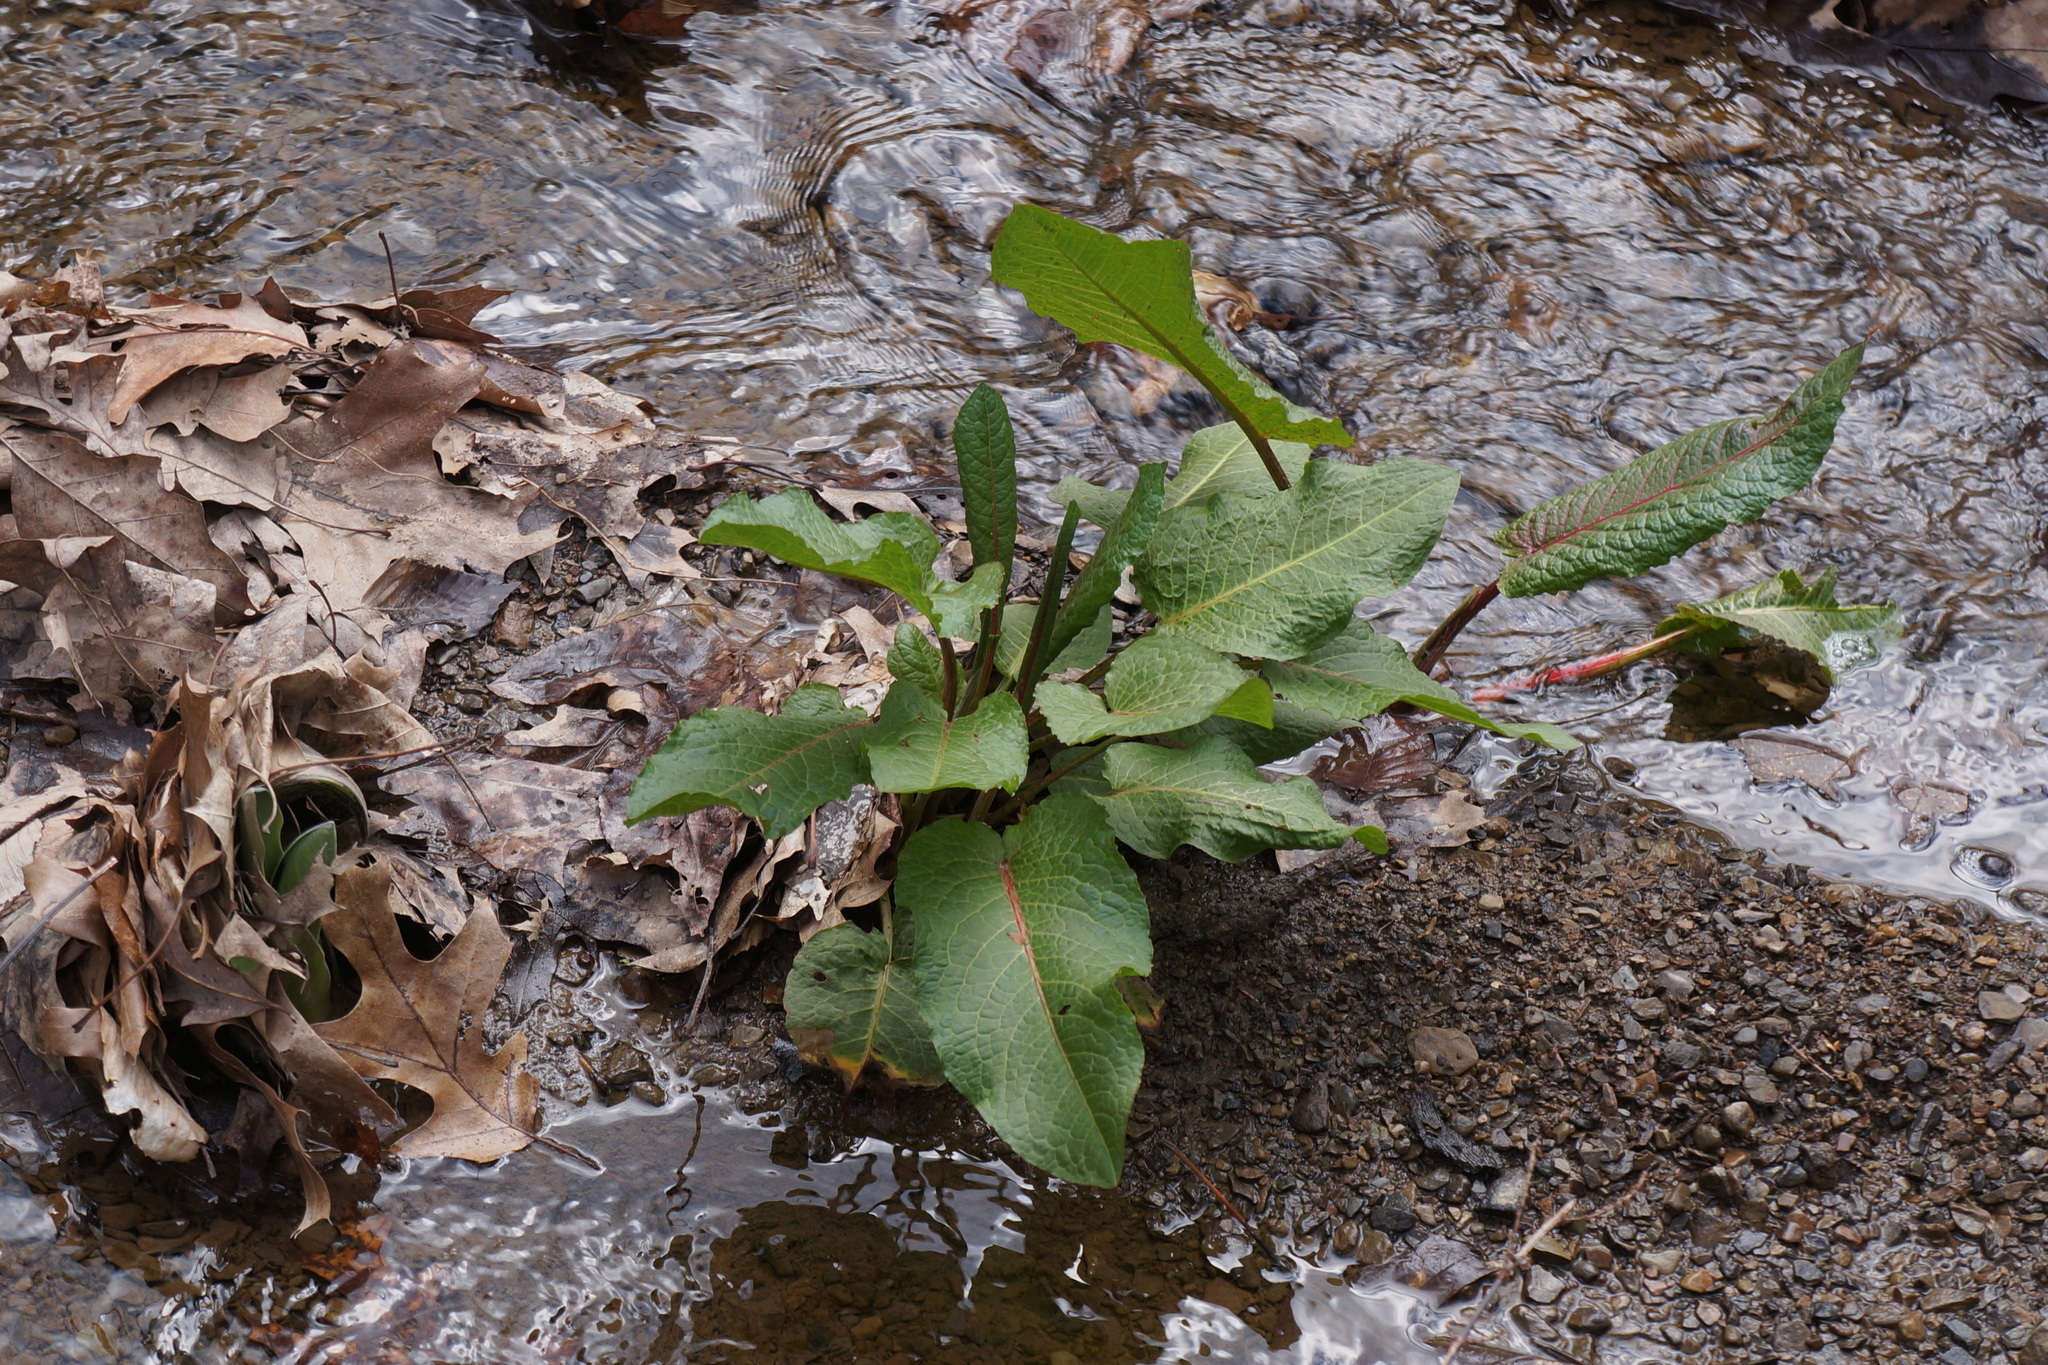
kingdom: Plantae
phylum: Tracheophyta
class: Magnoliopsida
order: Caryophyllales
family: Polygonaceae
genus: Rumex
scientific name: Rumex obtusifolius
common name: Bitter dock
